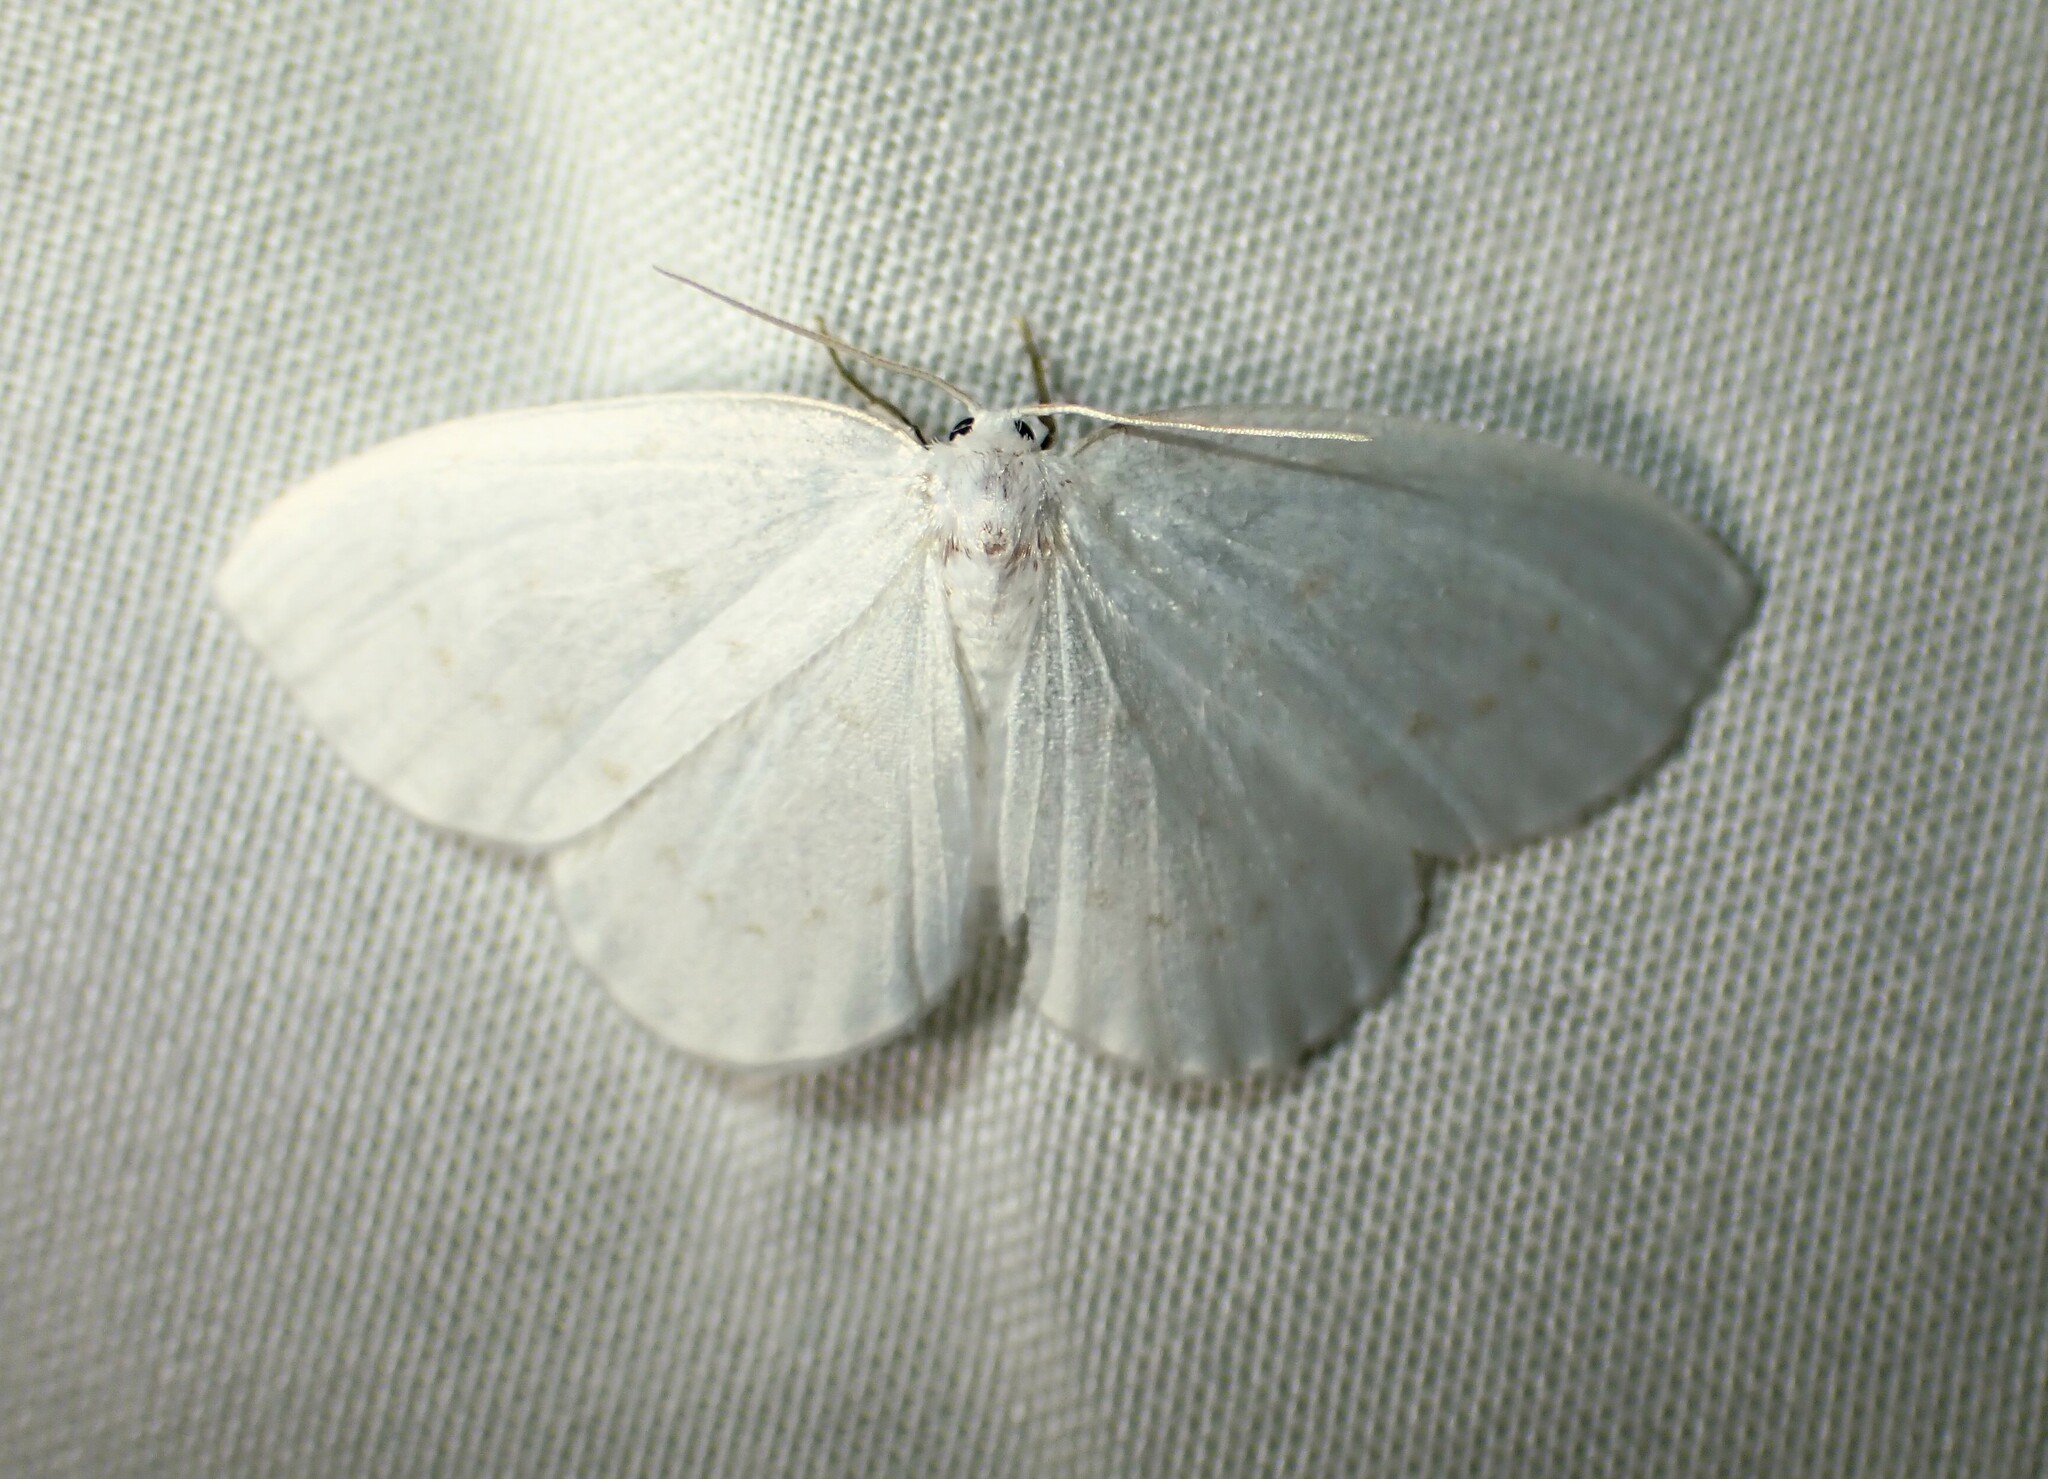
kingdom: Animalia
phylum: Arthropoda
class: Insecta
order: Lepidoptera
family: Drepanidae
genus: Eudeilinia
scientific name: Eudeilinia herminiata
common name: Northern eudeilinea moth
